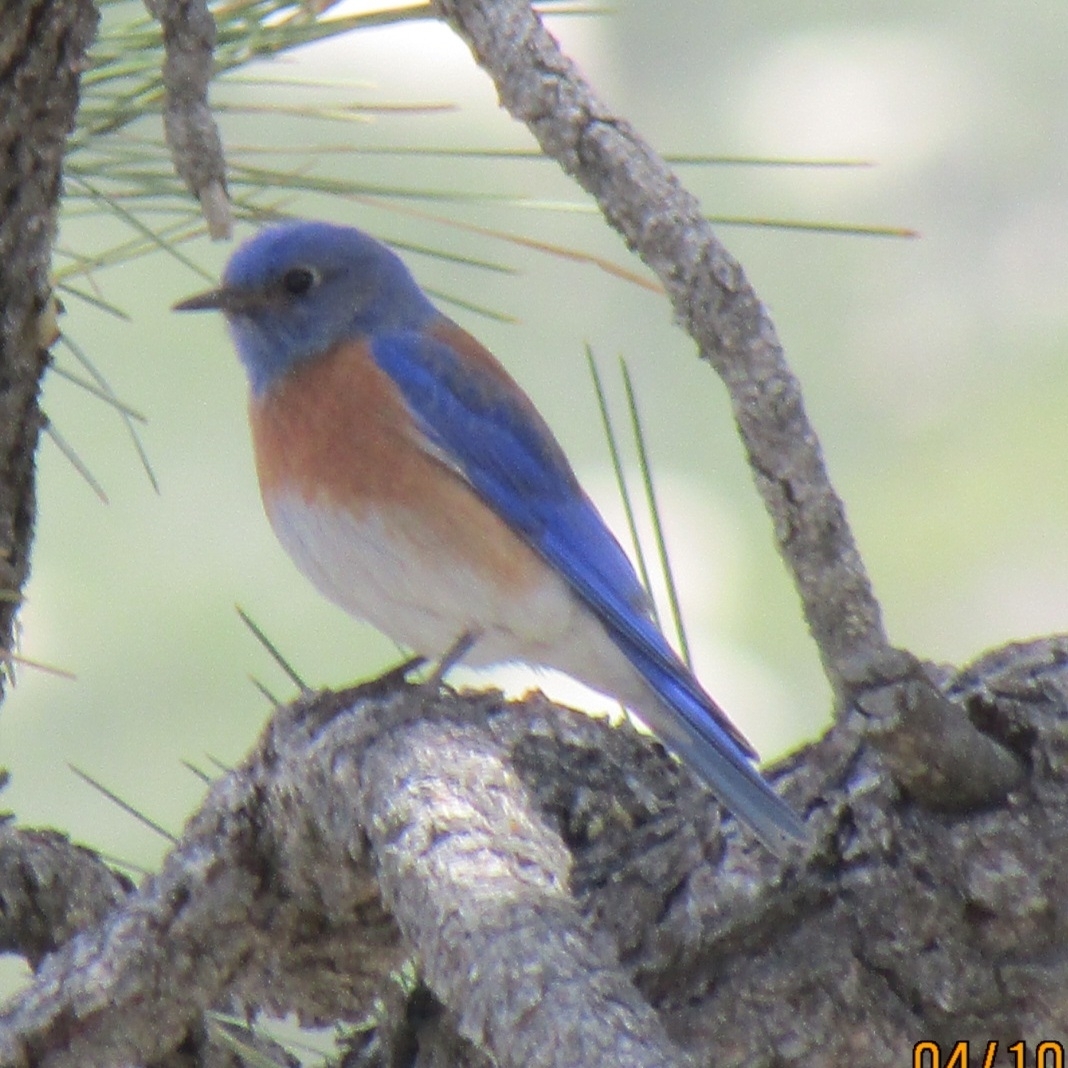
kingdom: Animalia
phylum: Chordata
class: Aves
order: Passeriformes
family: Turdidae
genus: Sialia
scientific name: Sialia mexicana
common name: Western bluebird
